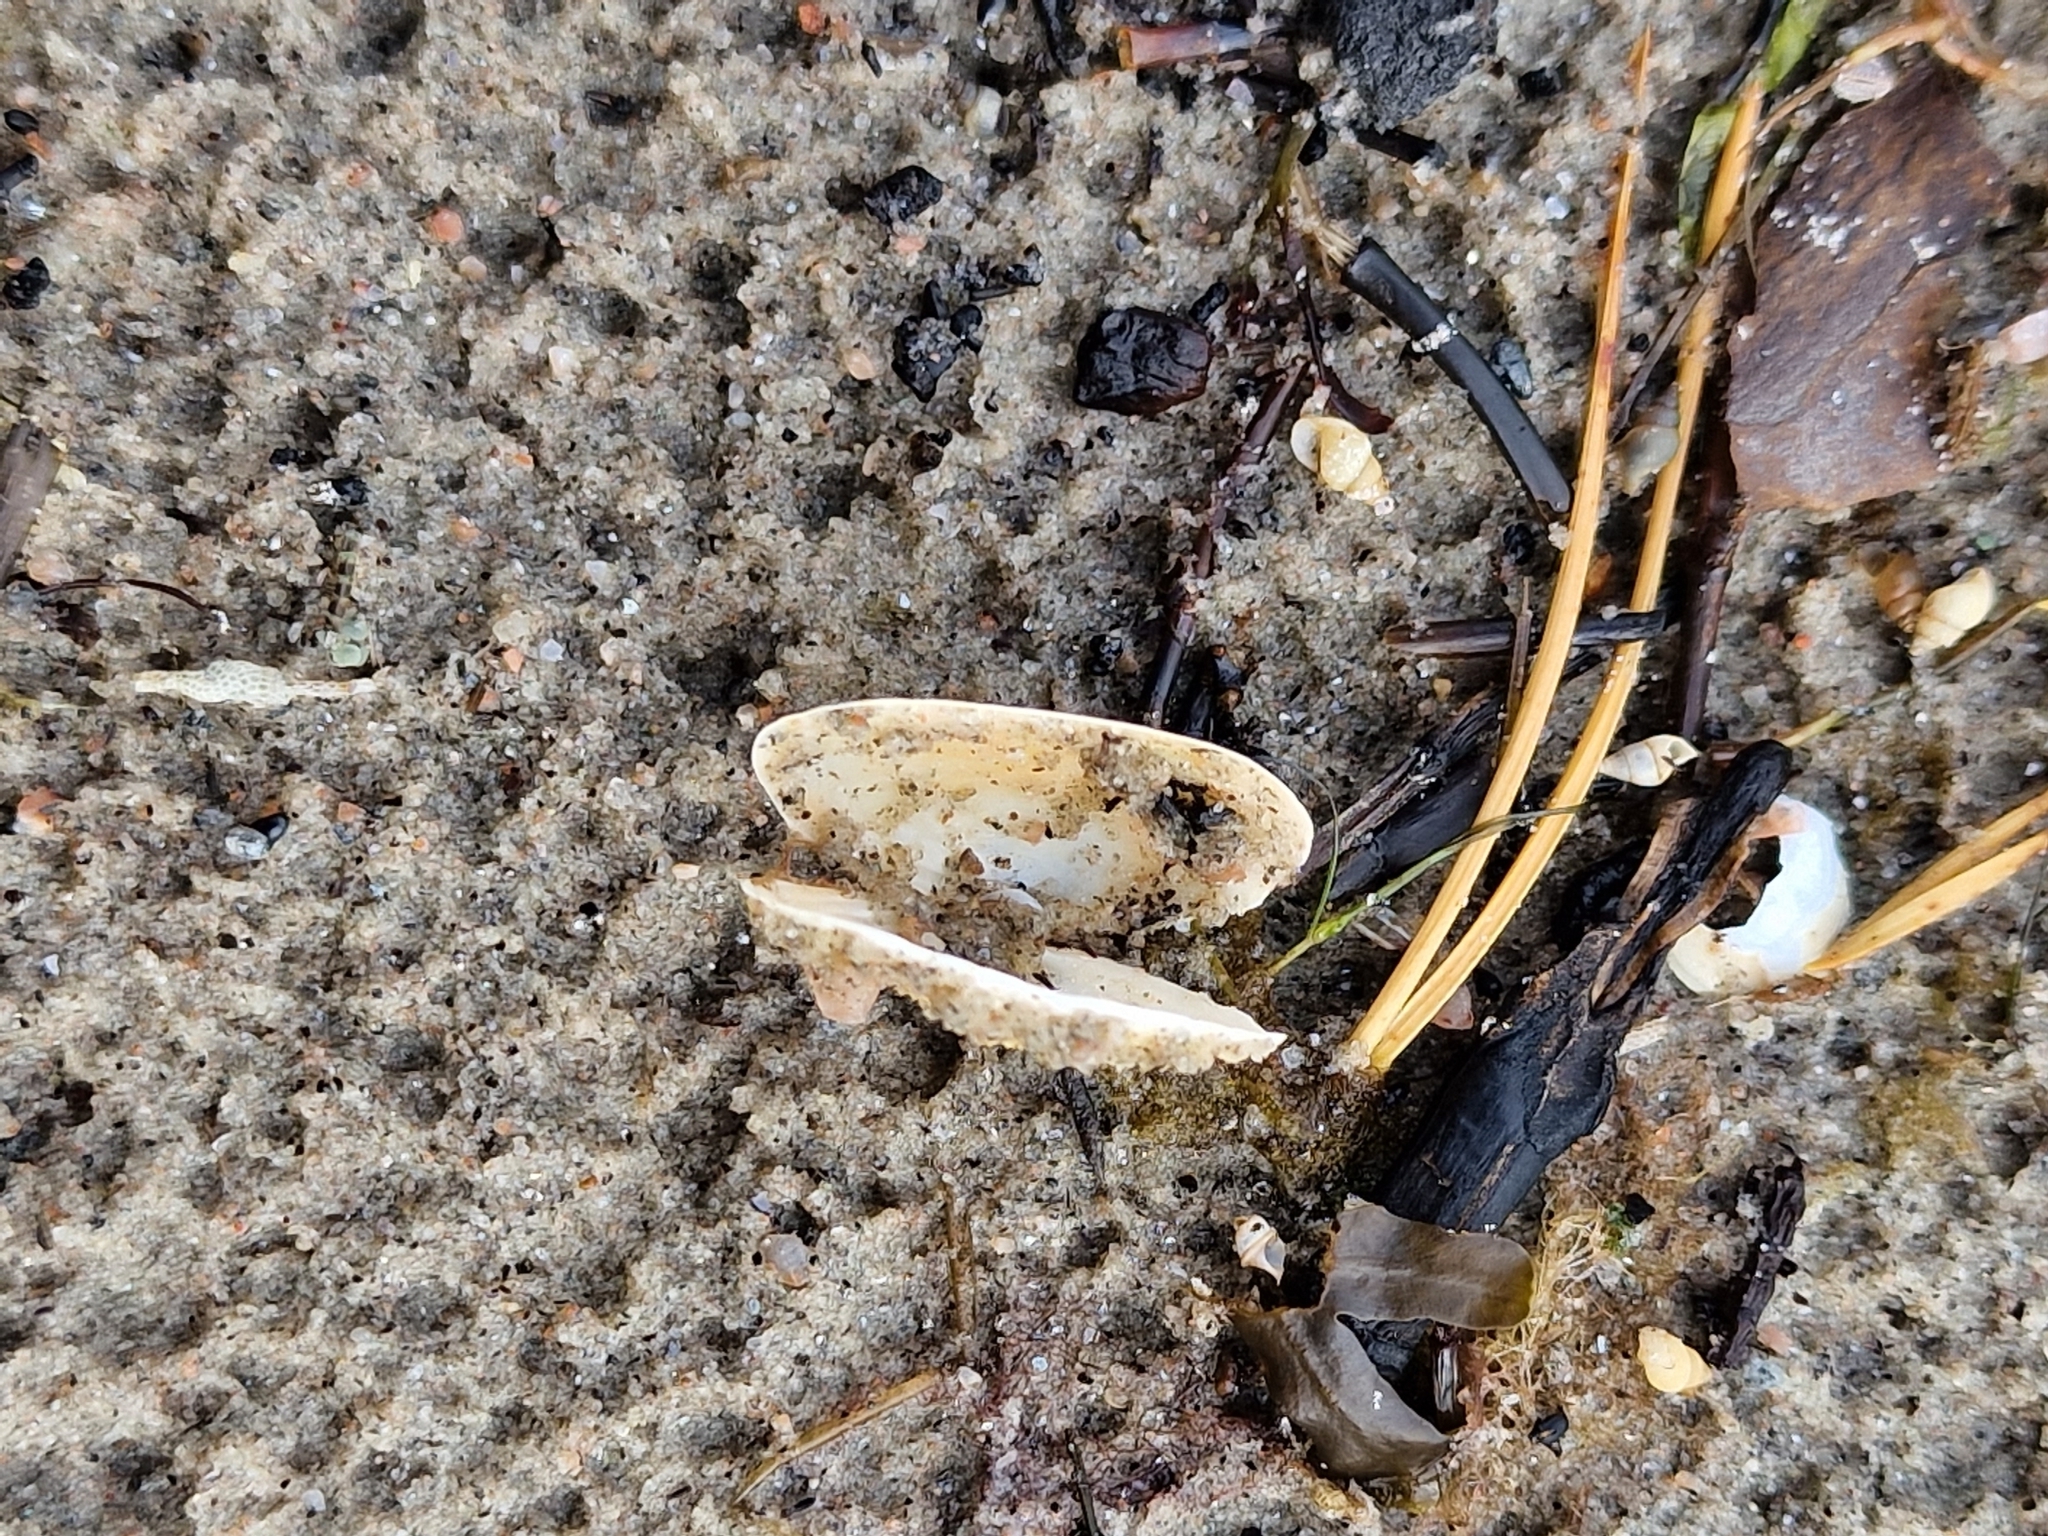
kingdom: Animalia
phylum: Mollusca
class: Bivalvia
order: Myida
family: Myidae
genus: Mya
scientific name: Mya arenaria
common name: Soft-shelled clam
